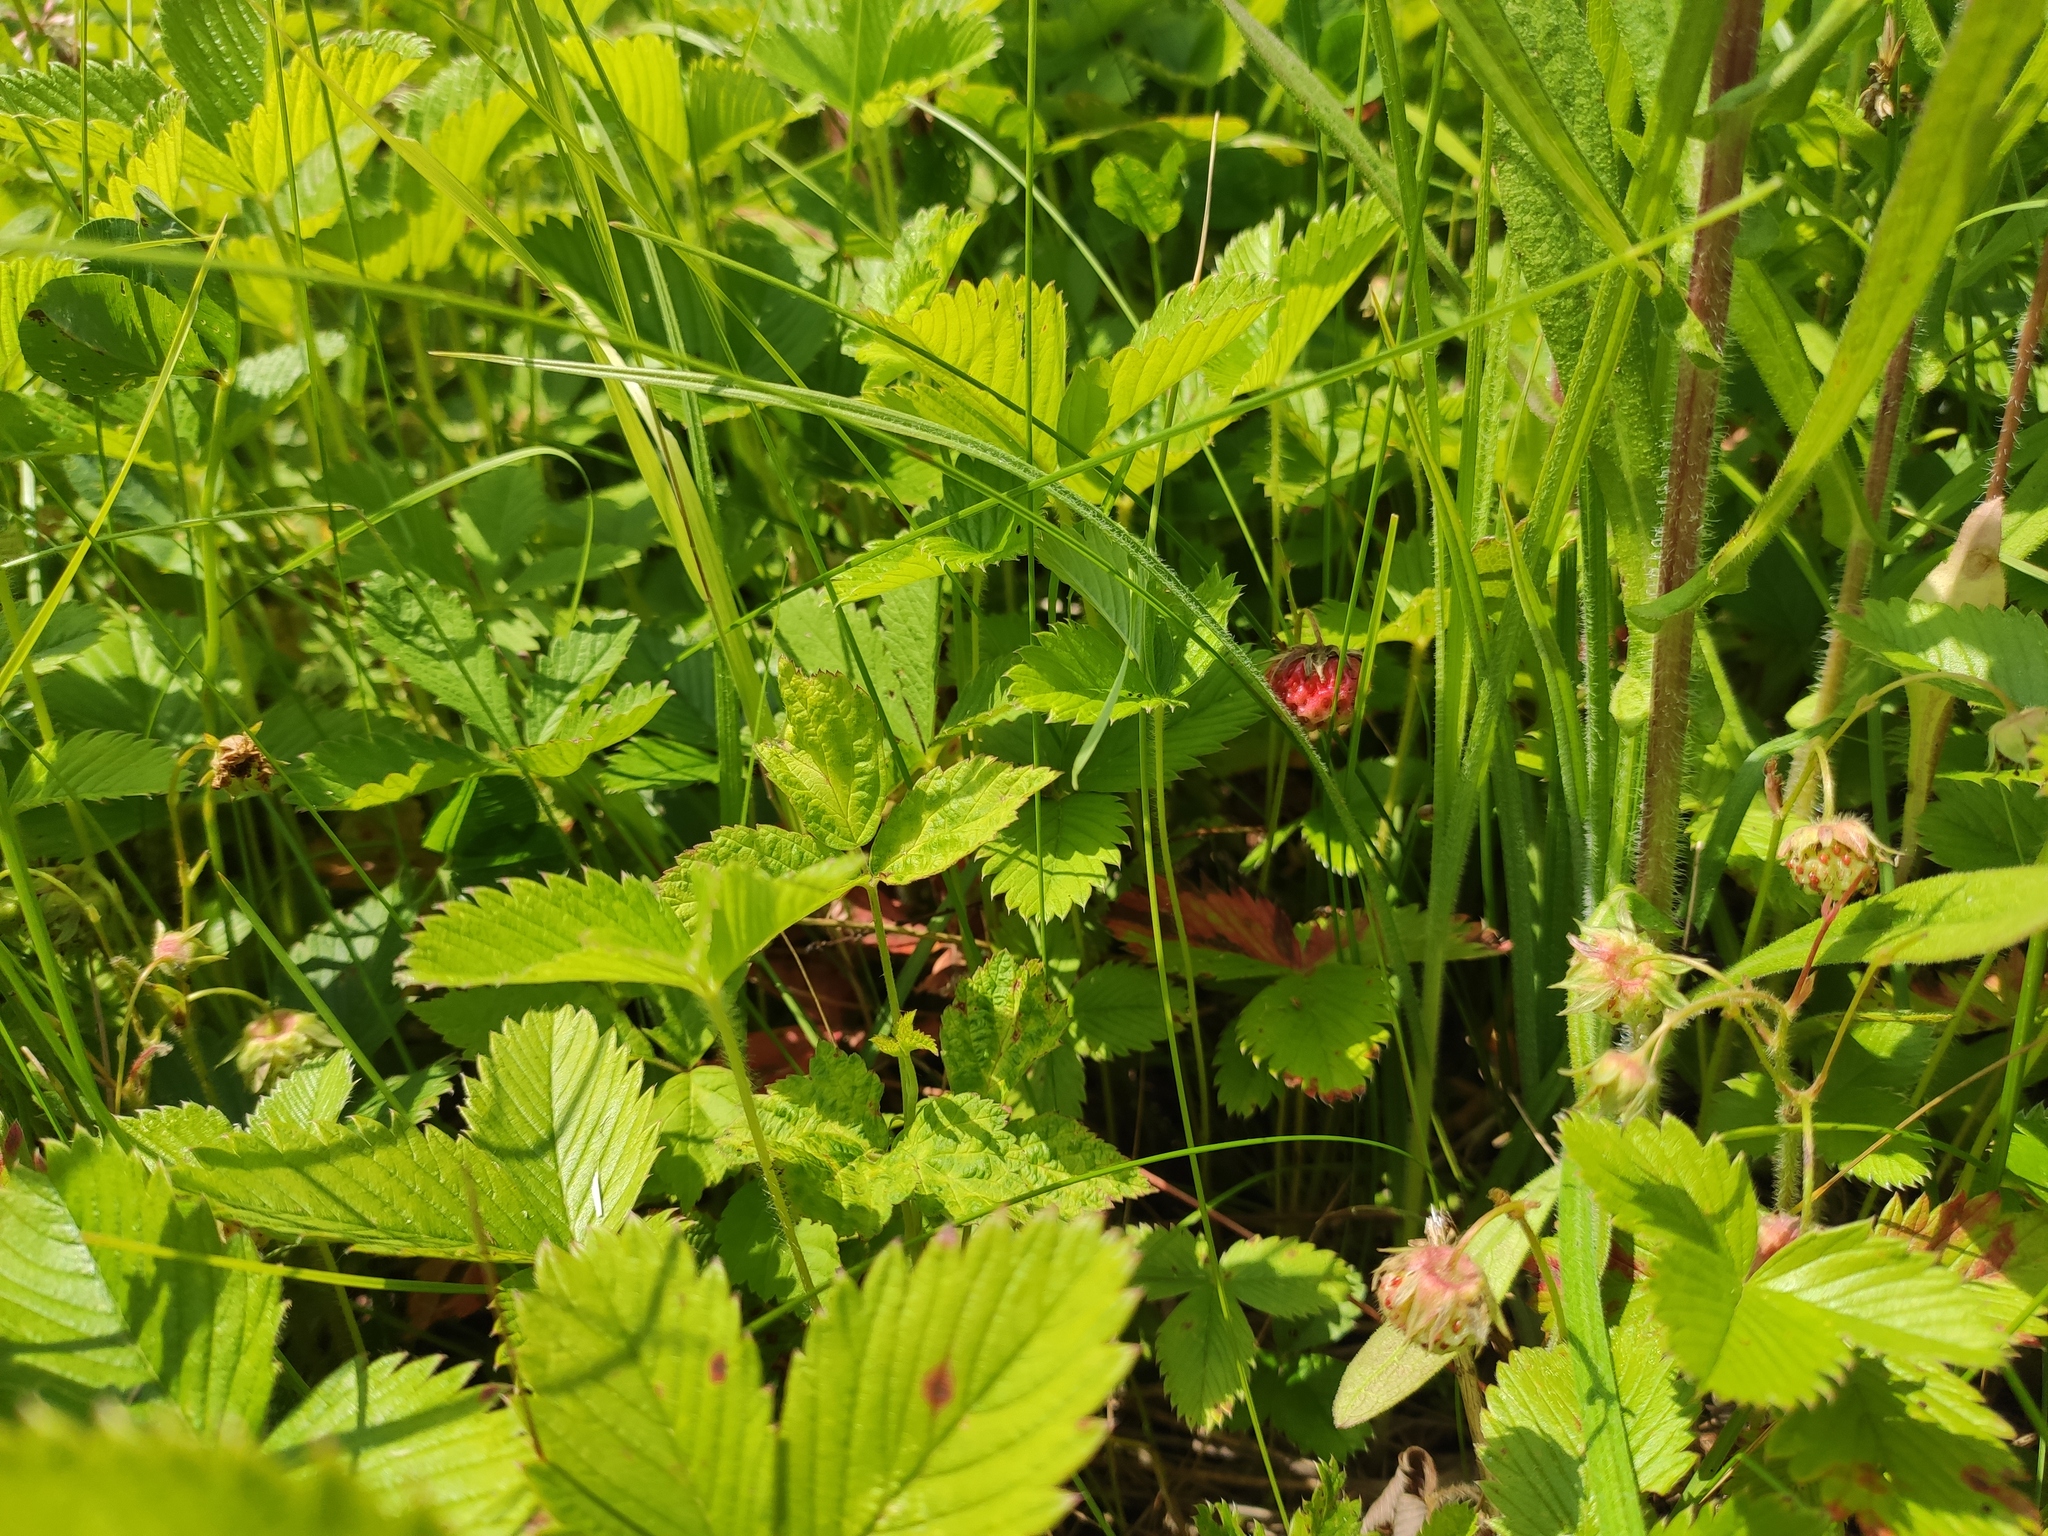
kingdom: Plantae
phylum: Tracheophyta
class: Magnoliopsida
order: Rosales
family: Rosaceae
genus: Fragaria
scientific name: Fragaria viridis
